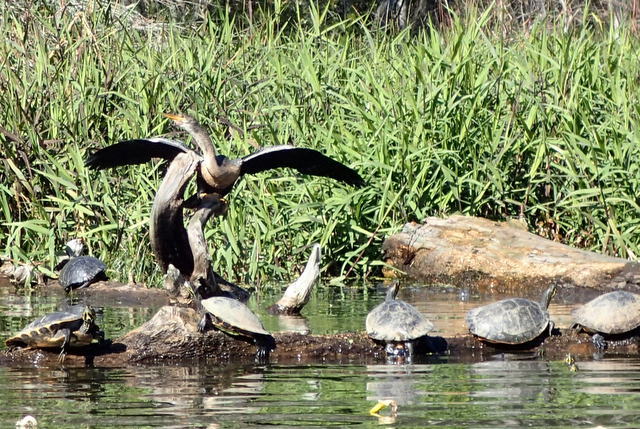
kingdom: Animalia
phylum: Chordata
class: Aves
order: Suliformes
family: Anhingidae
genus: Anhinga
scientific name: Anhinga anhinga
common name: Anhinga
